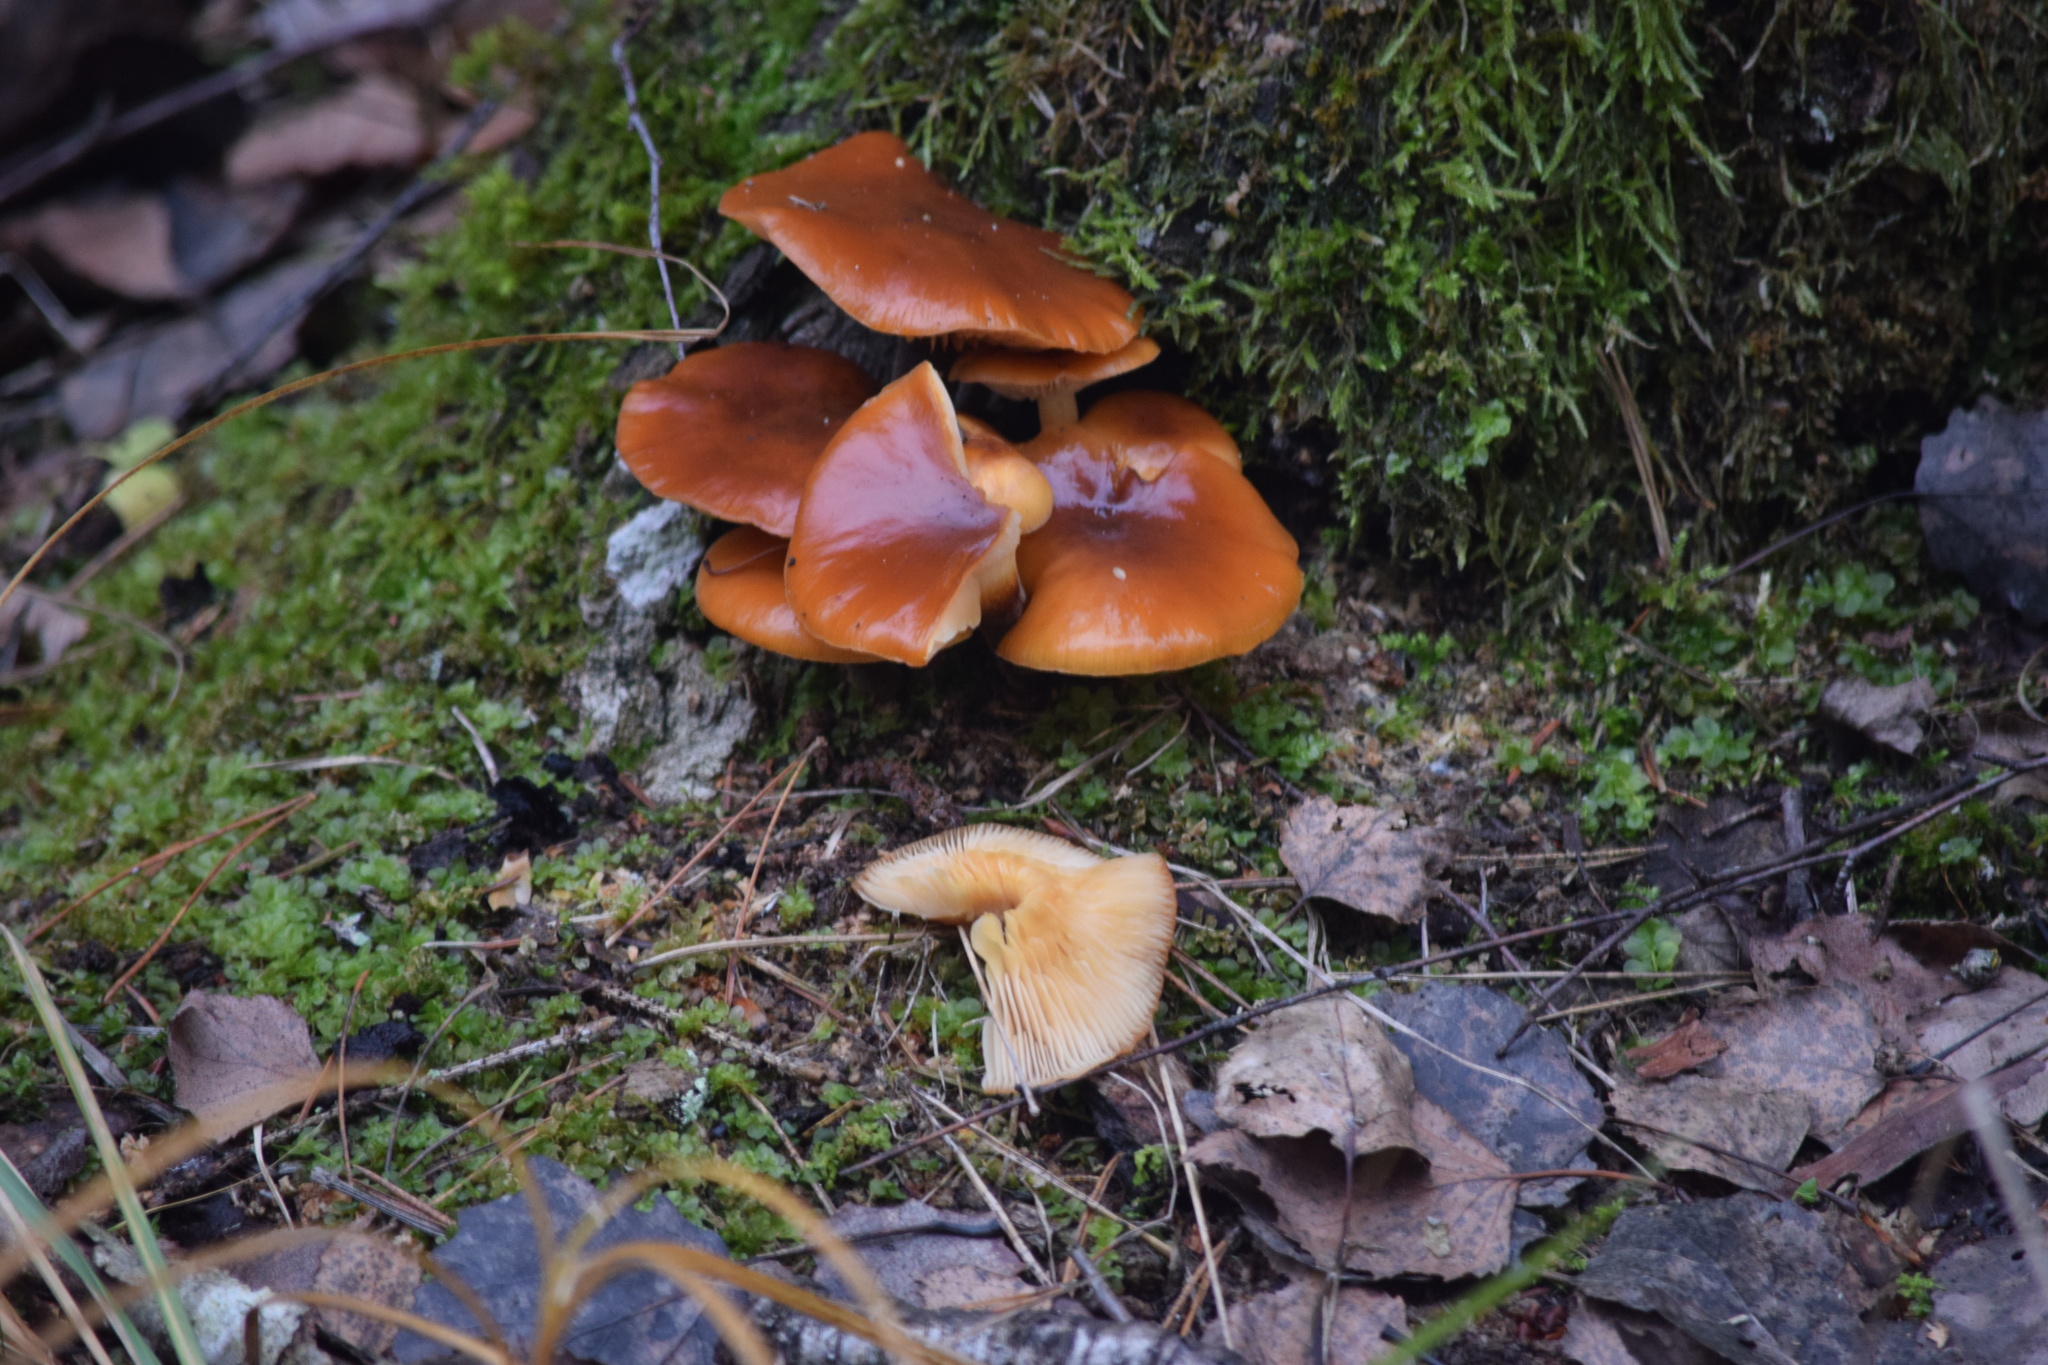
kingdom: Fungi
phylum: Basidiomycota
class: Agaricomycetes
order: Agaricales
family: Physalacriaceae
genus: Flammulina
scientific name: Flammulina
